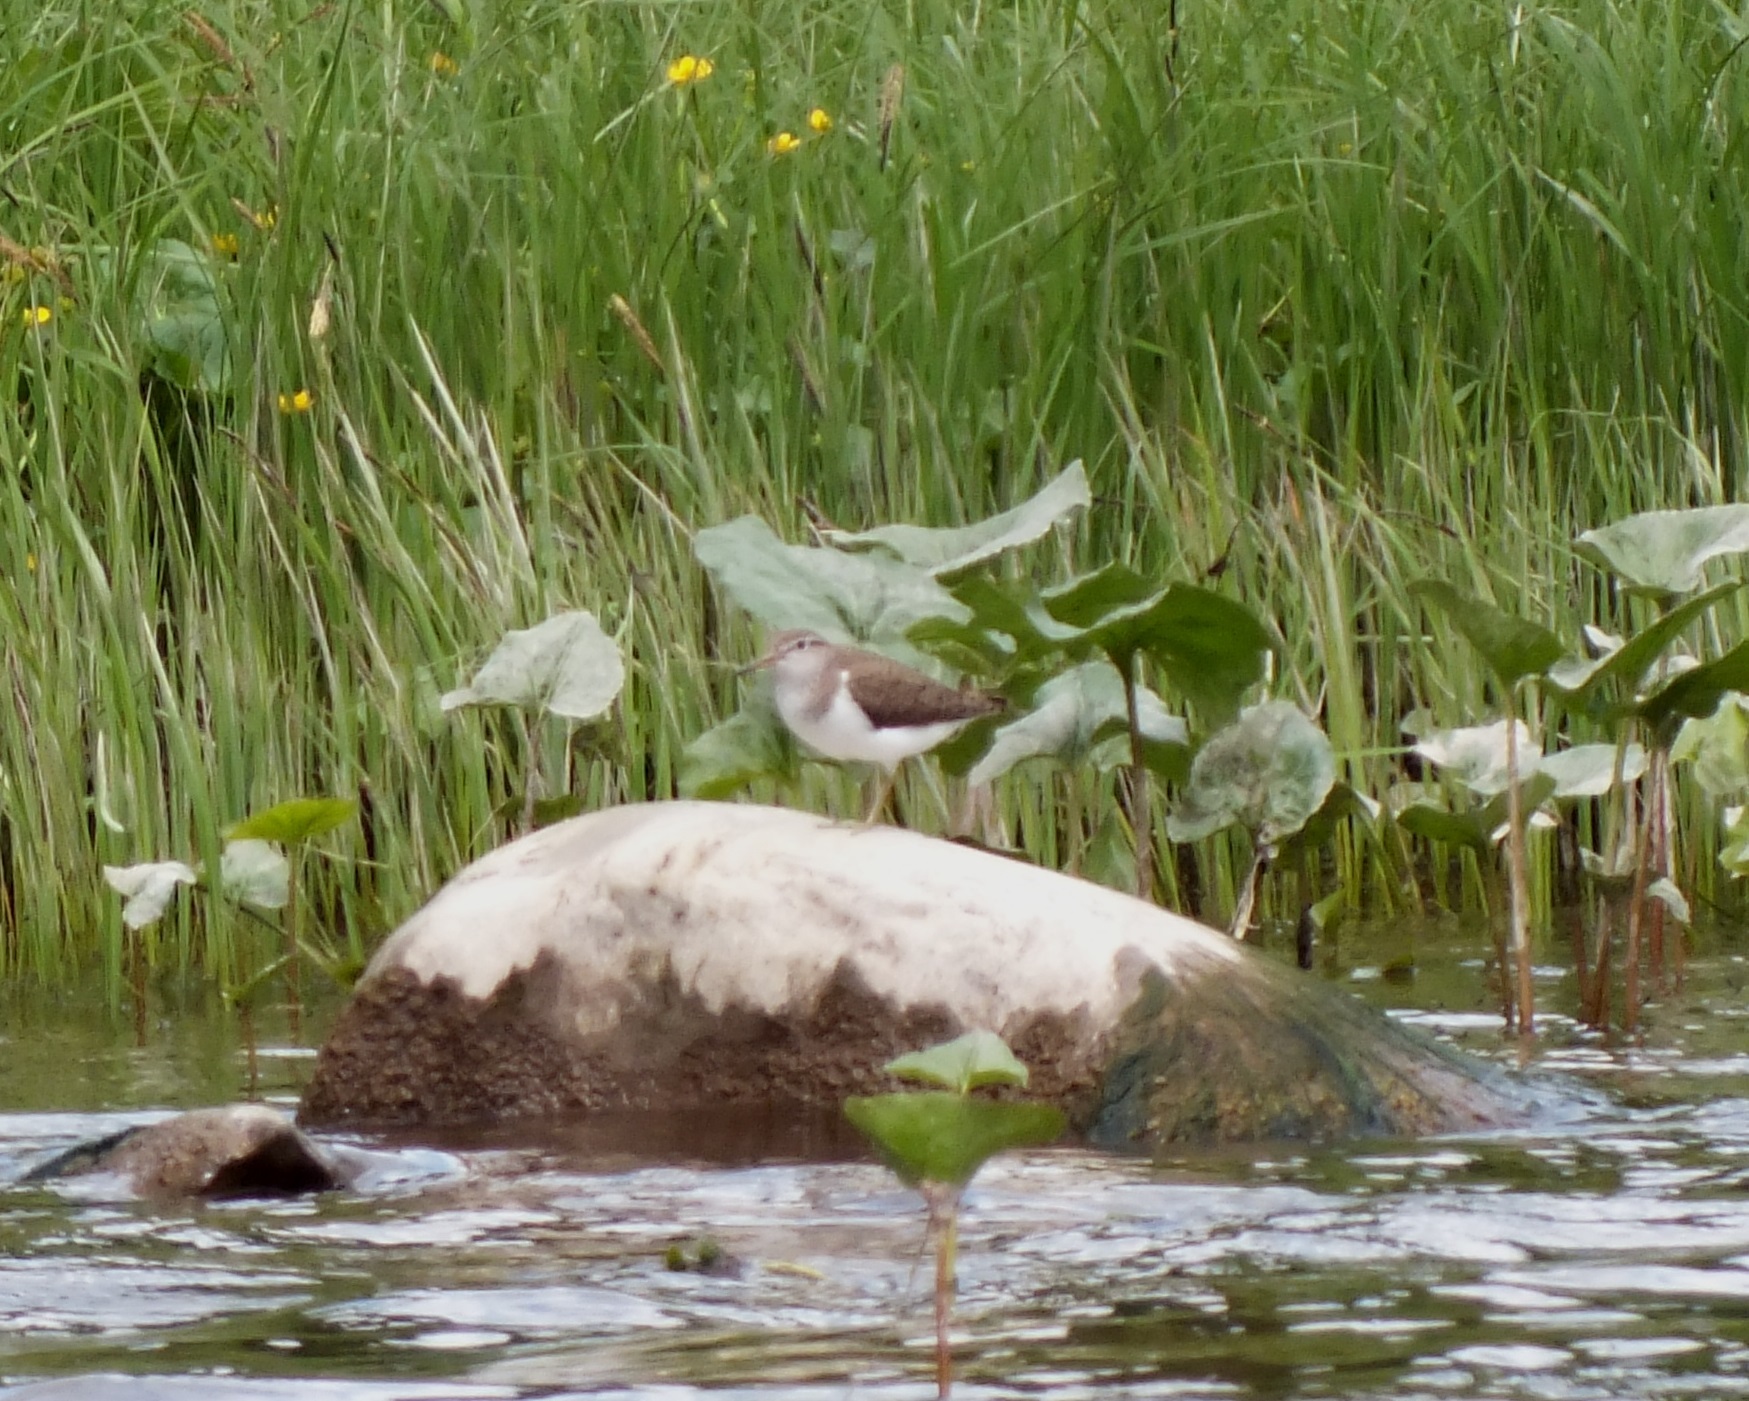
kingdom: Animalia
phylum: Chordata
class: Aves
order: Charadriiformes
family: Scolopacidae
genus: Actitis
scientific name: Actitis hypoleucos
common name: Common sandpiper
